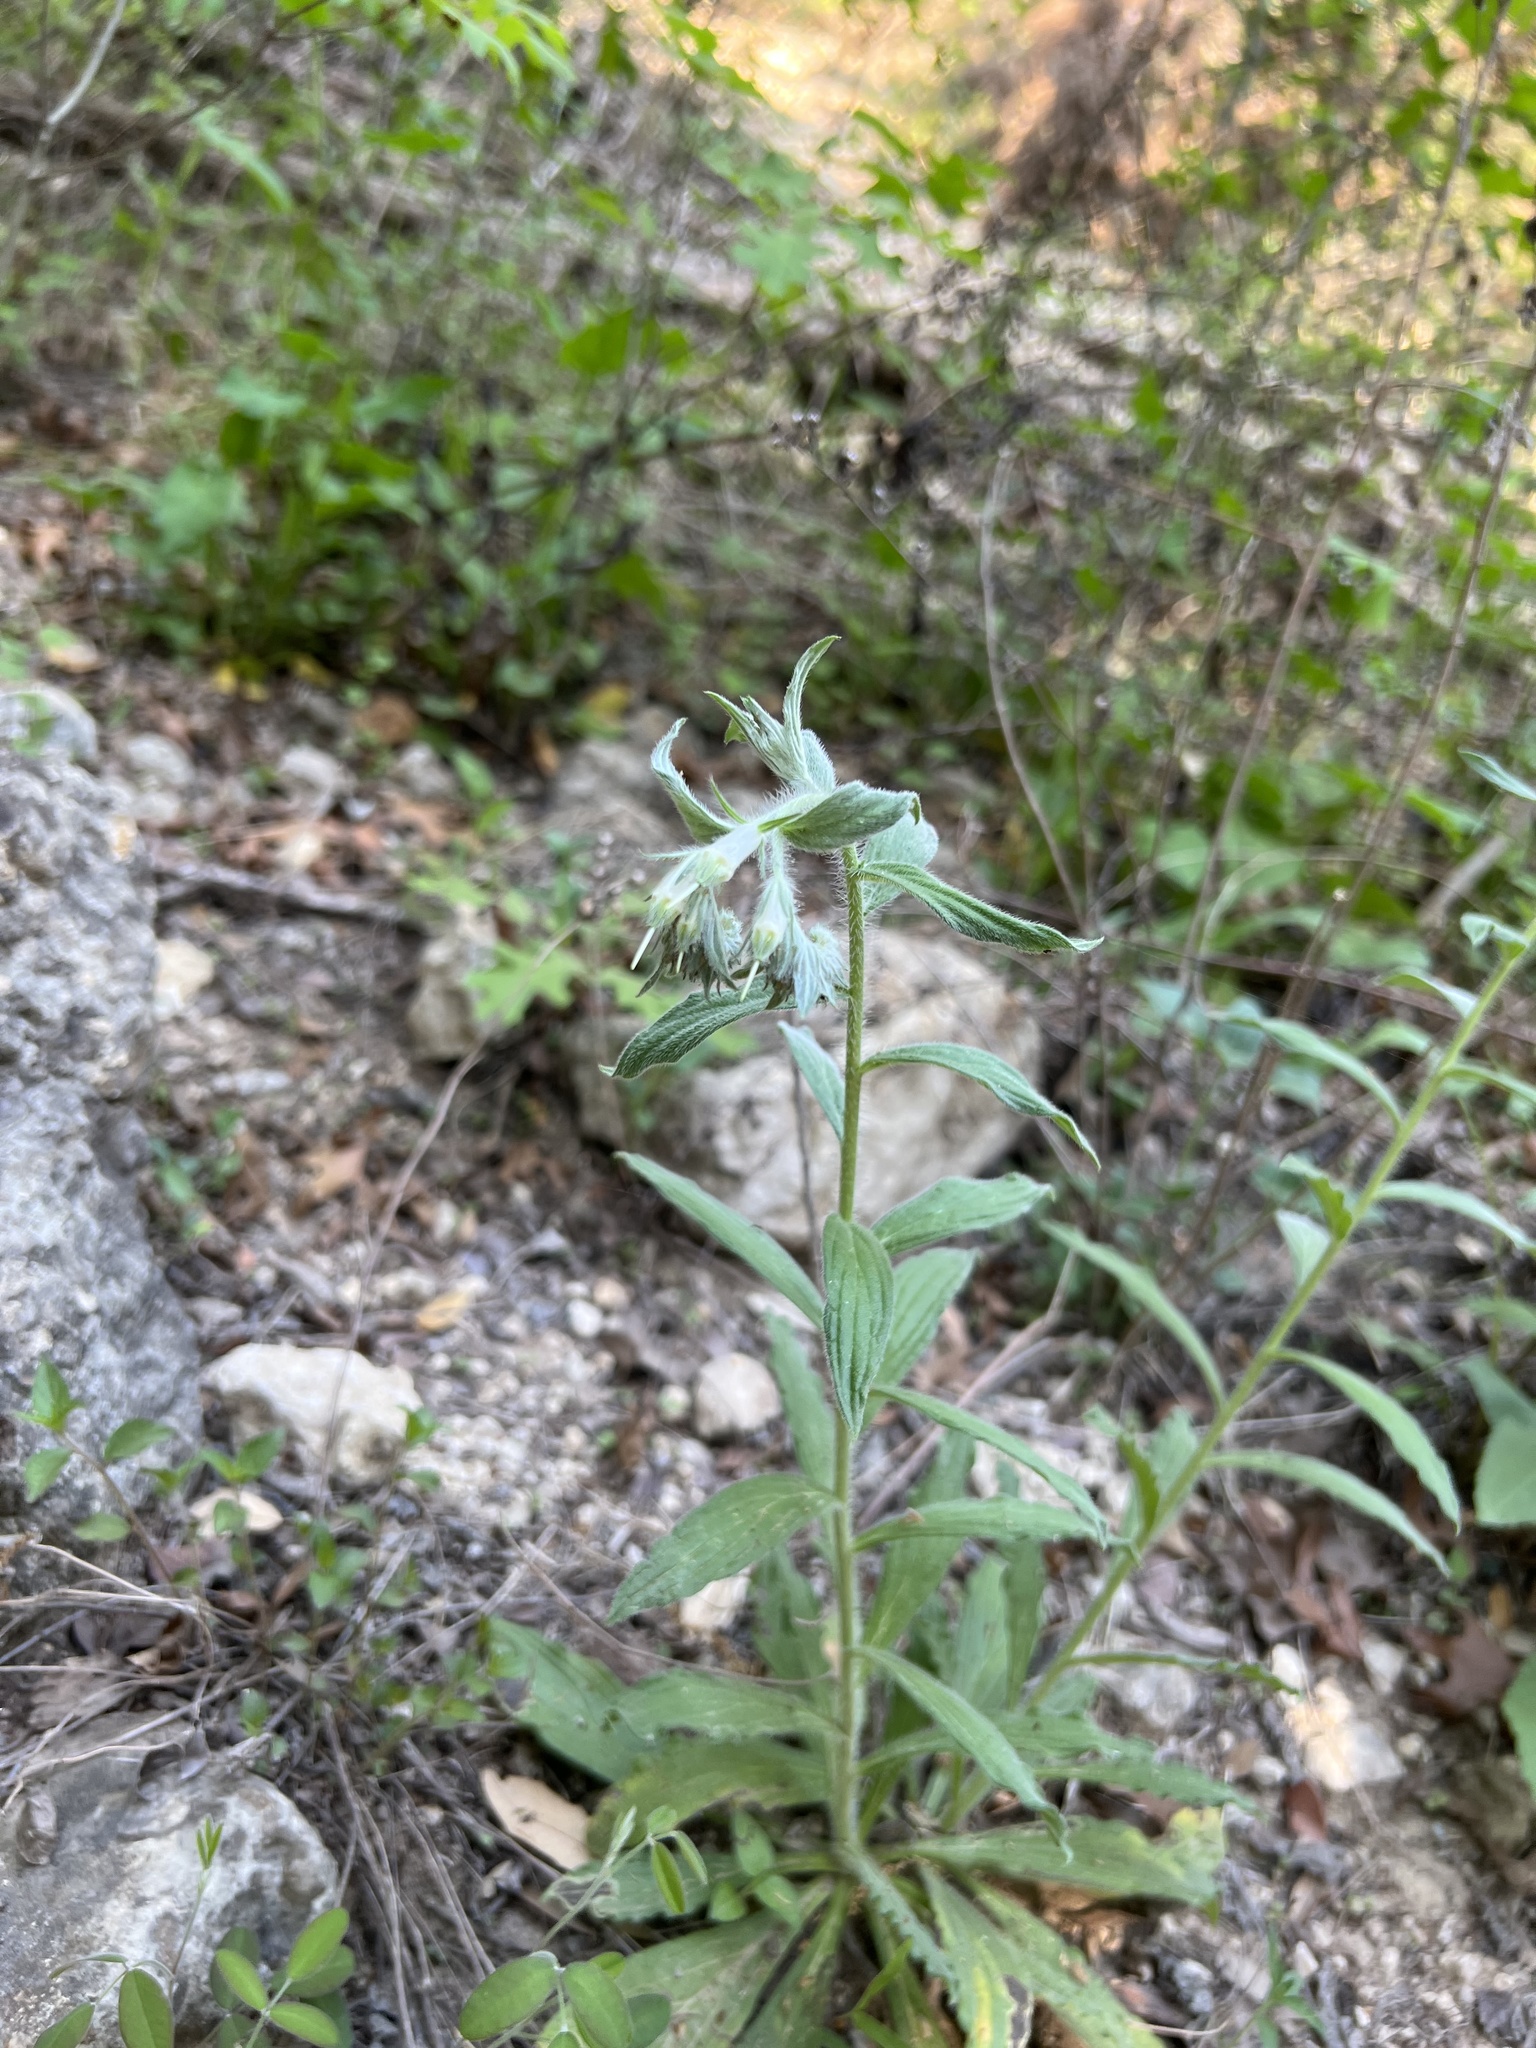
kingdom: Plantae
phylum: Tracheophyta
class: Magnoliopsida
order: Boraginales
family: Boraginaceae
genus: Lithospermum
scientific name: Lithospermum caroliniense
